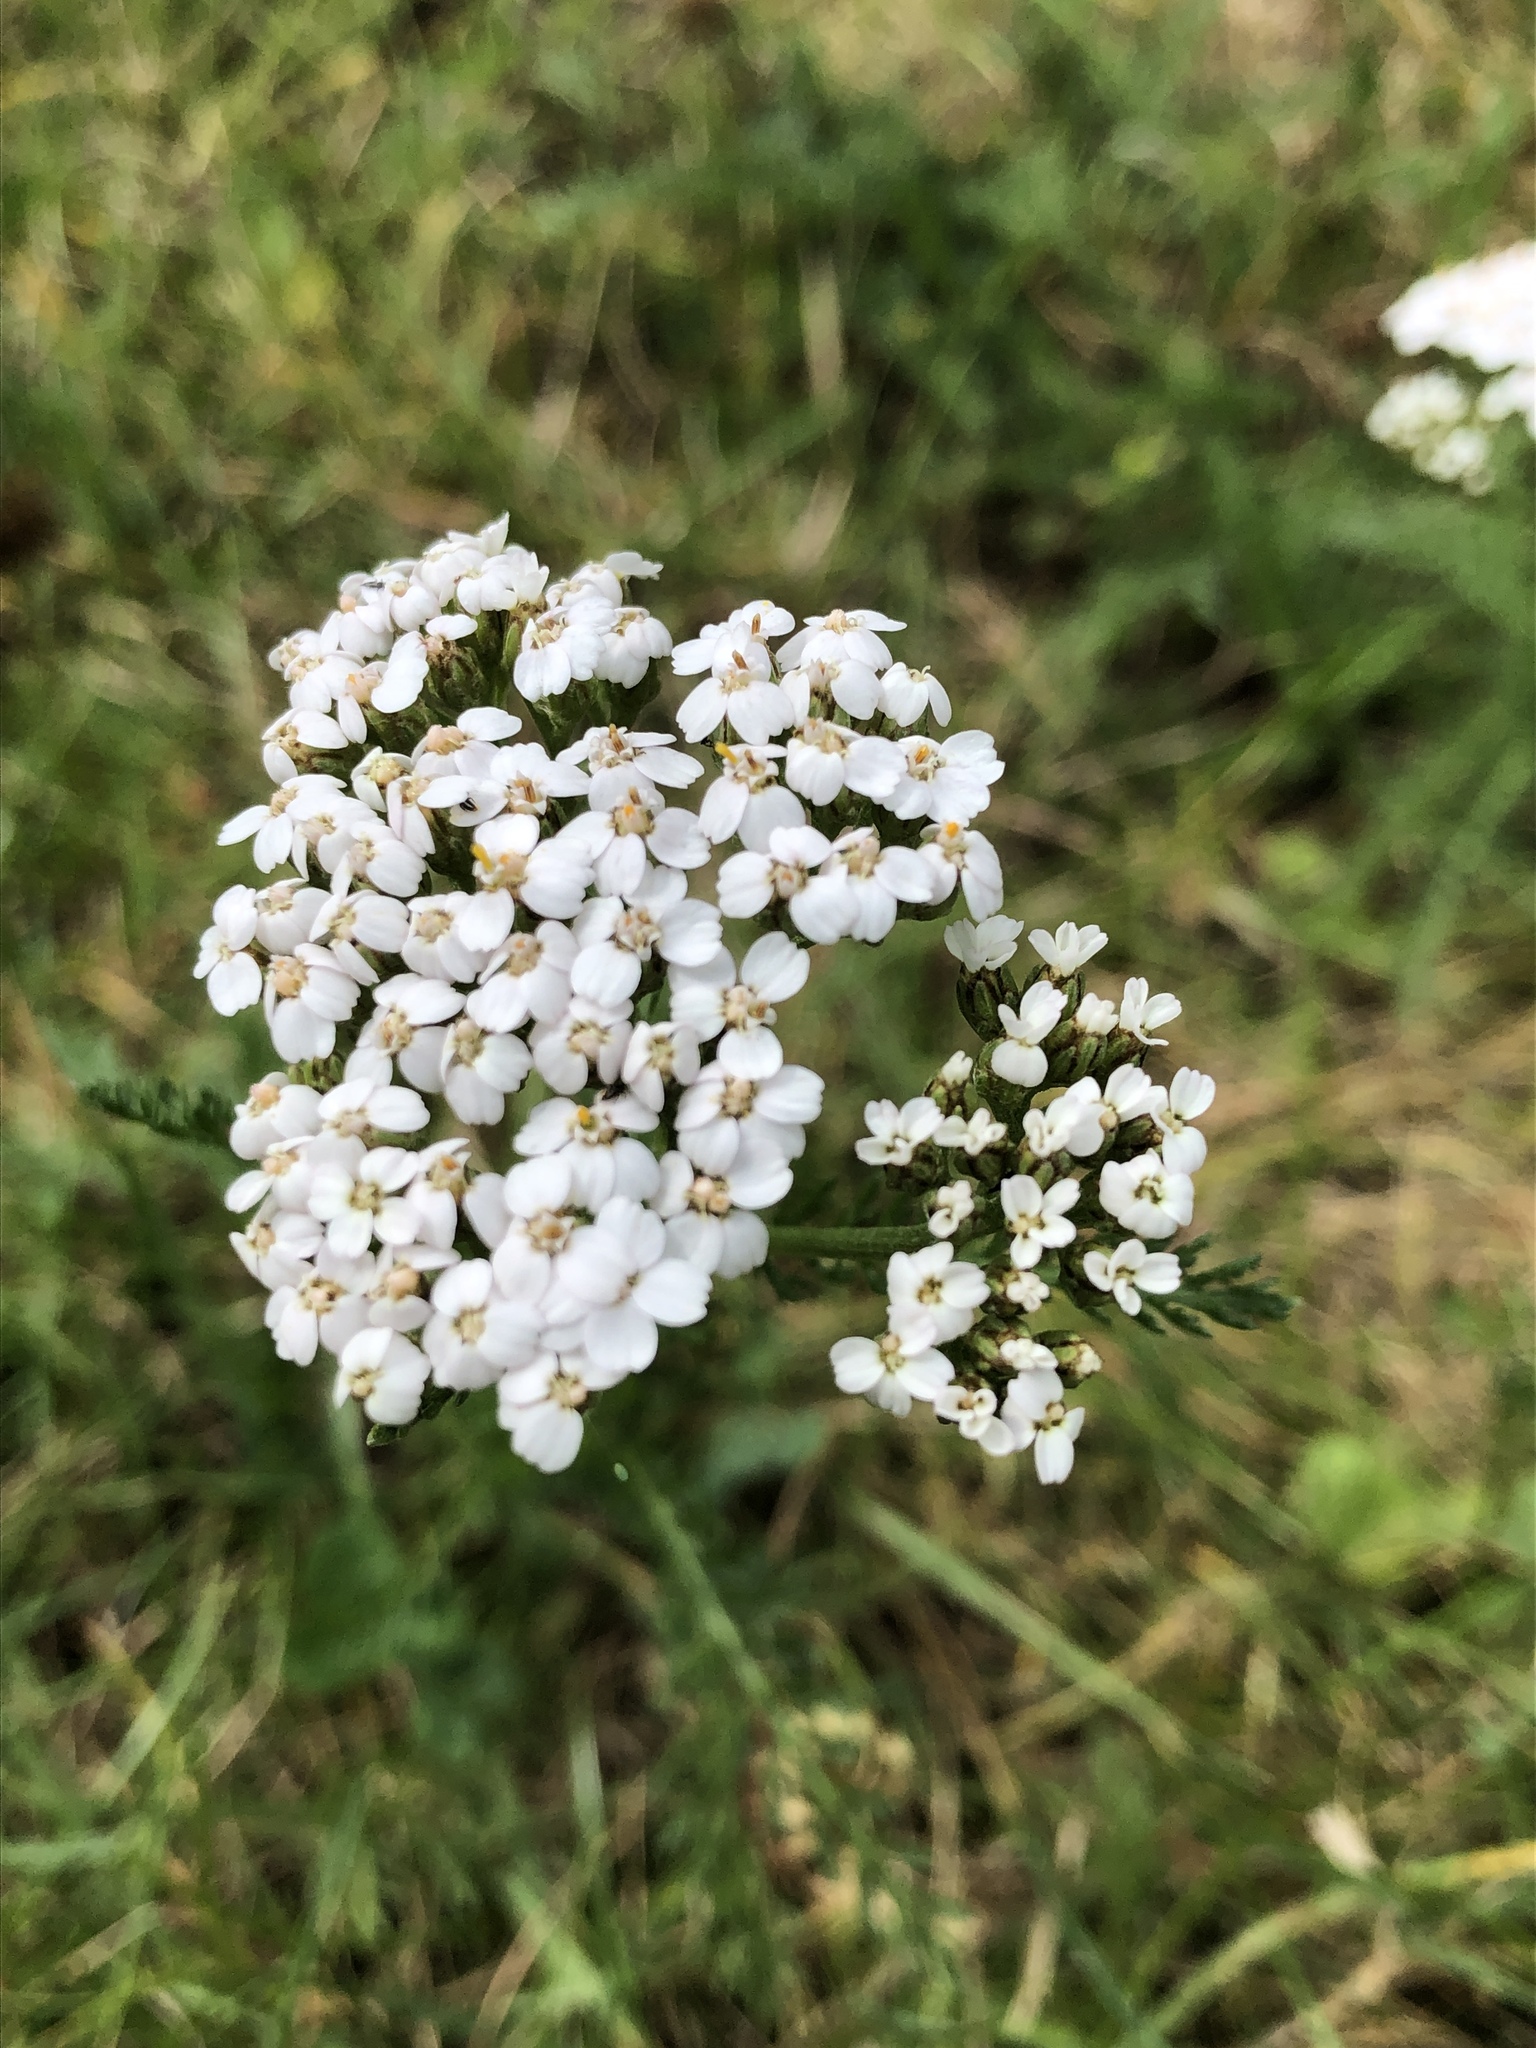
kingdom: Plantae
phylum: Tracheophyta
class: Magnoliopsida
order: Asterales
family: Asteraceae
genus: Achillea
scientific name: Achillea millefolium
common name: Yarrow
